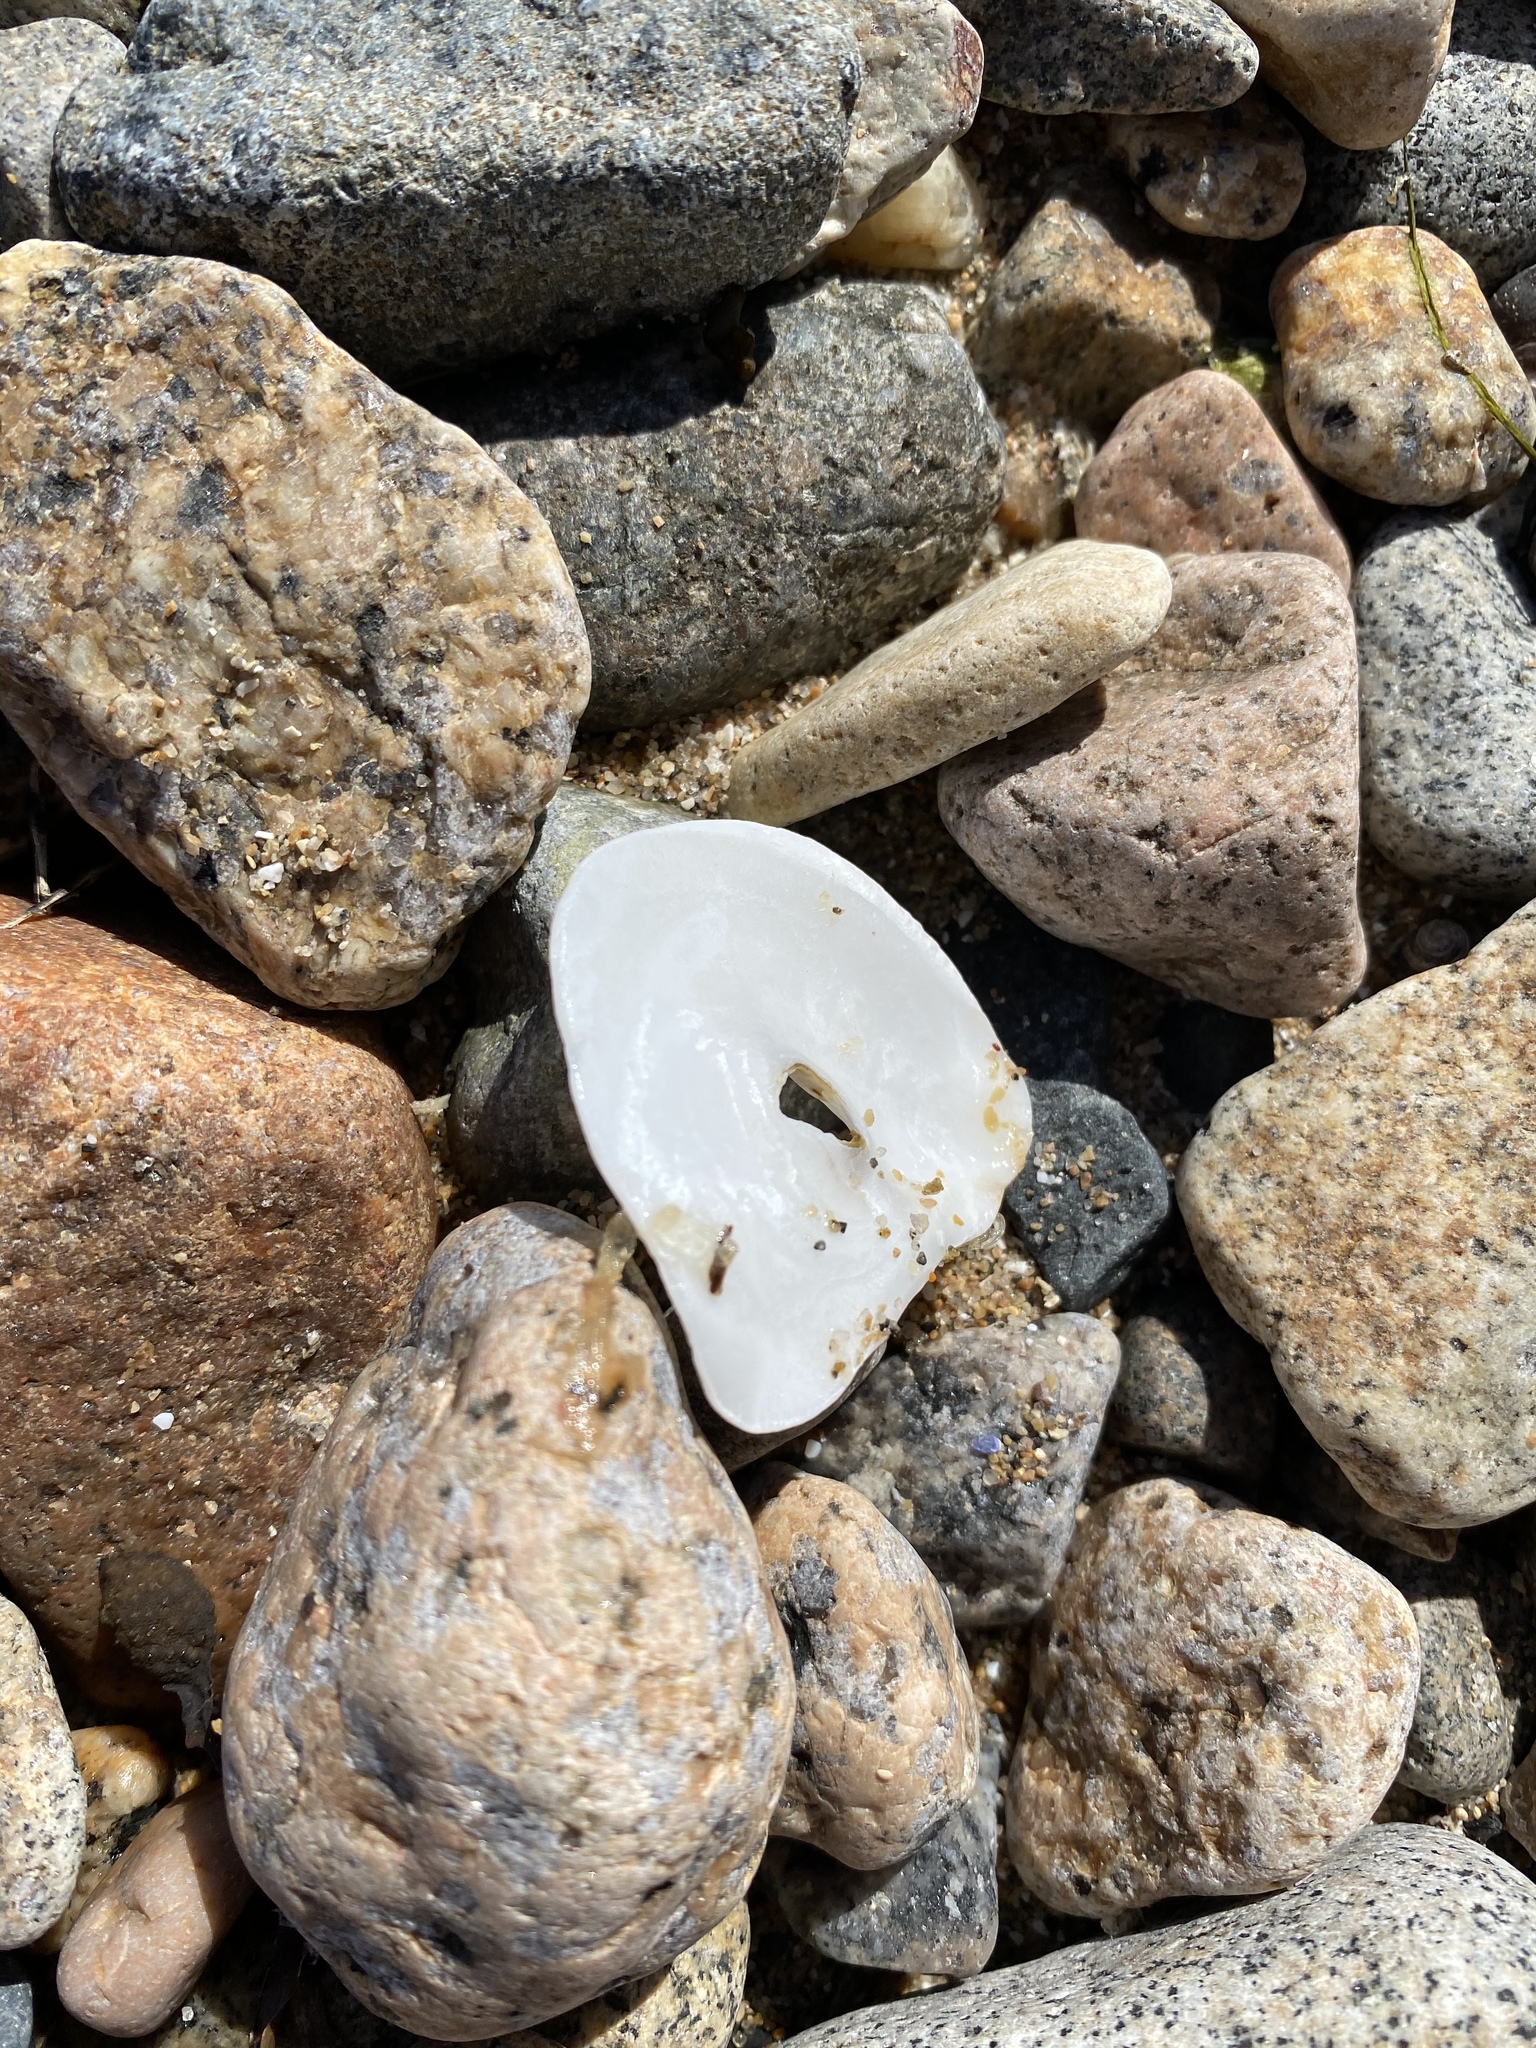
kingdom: Animalia
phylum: Mollusca
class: Bivalvia
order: Ostreida
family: Ostreidae
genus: Ostrea
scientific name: Ostrea edulis
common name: Flat oyster
